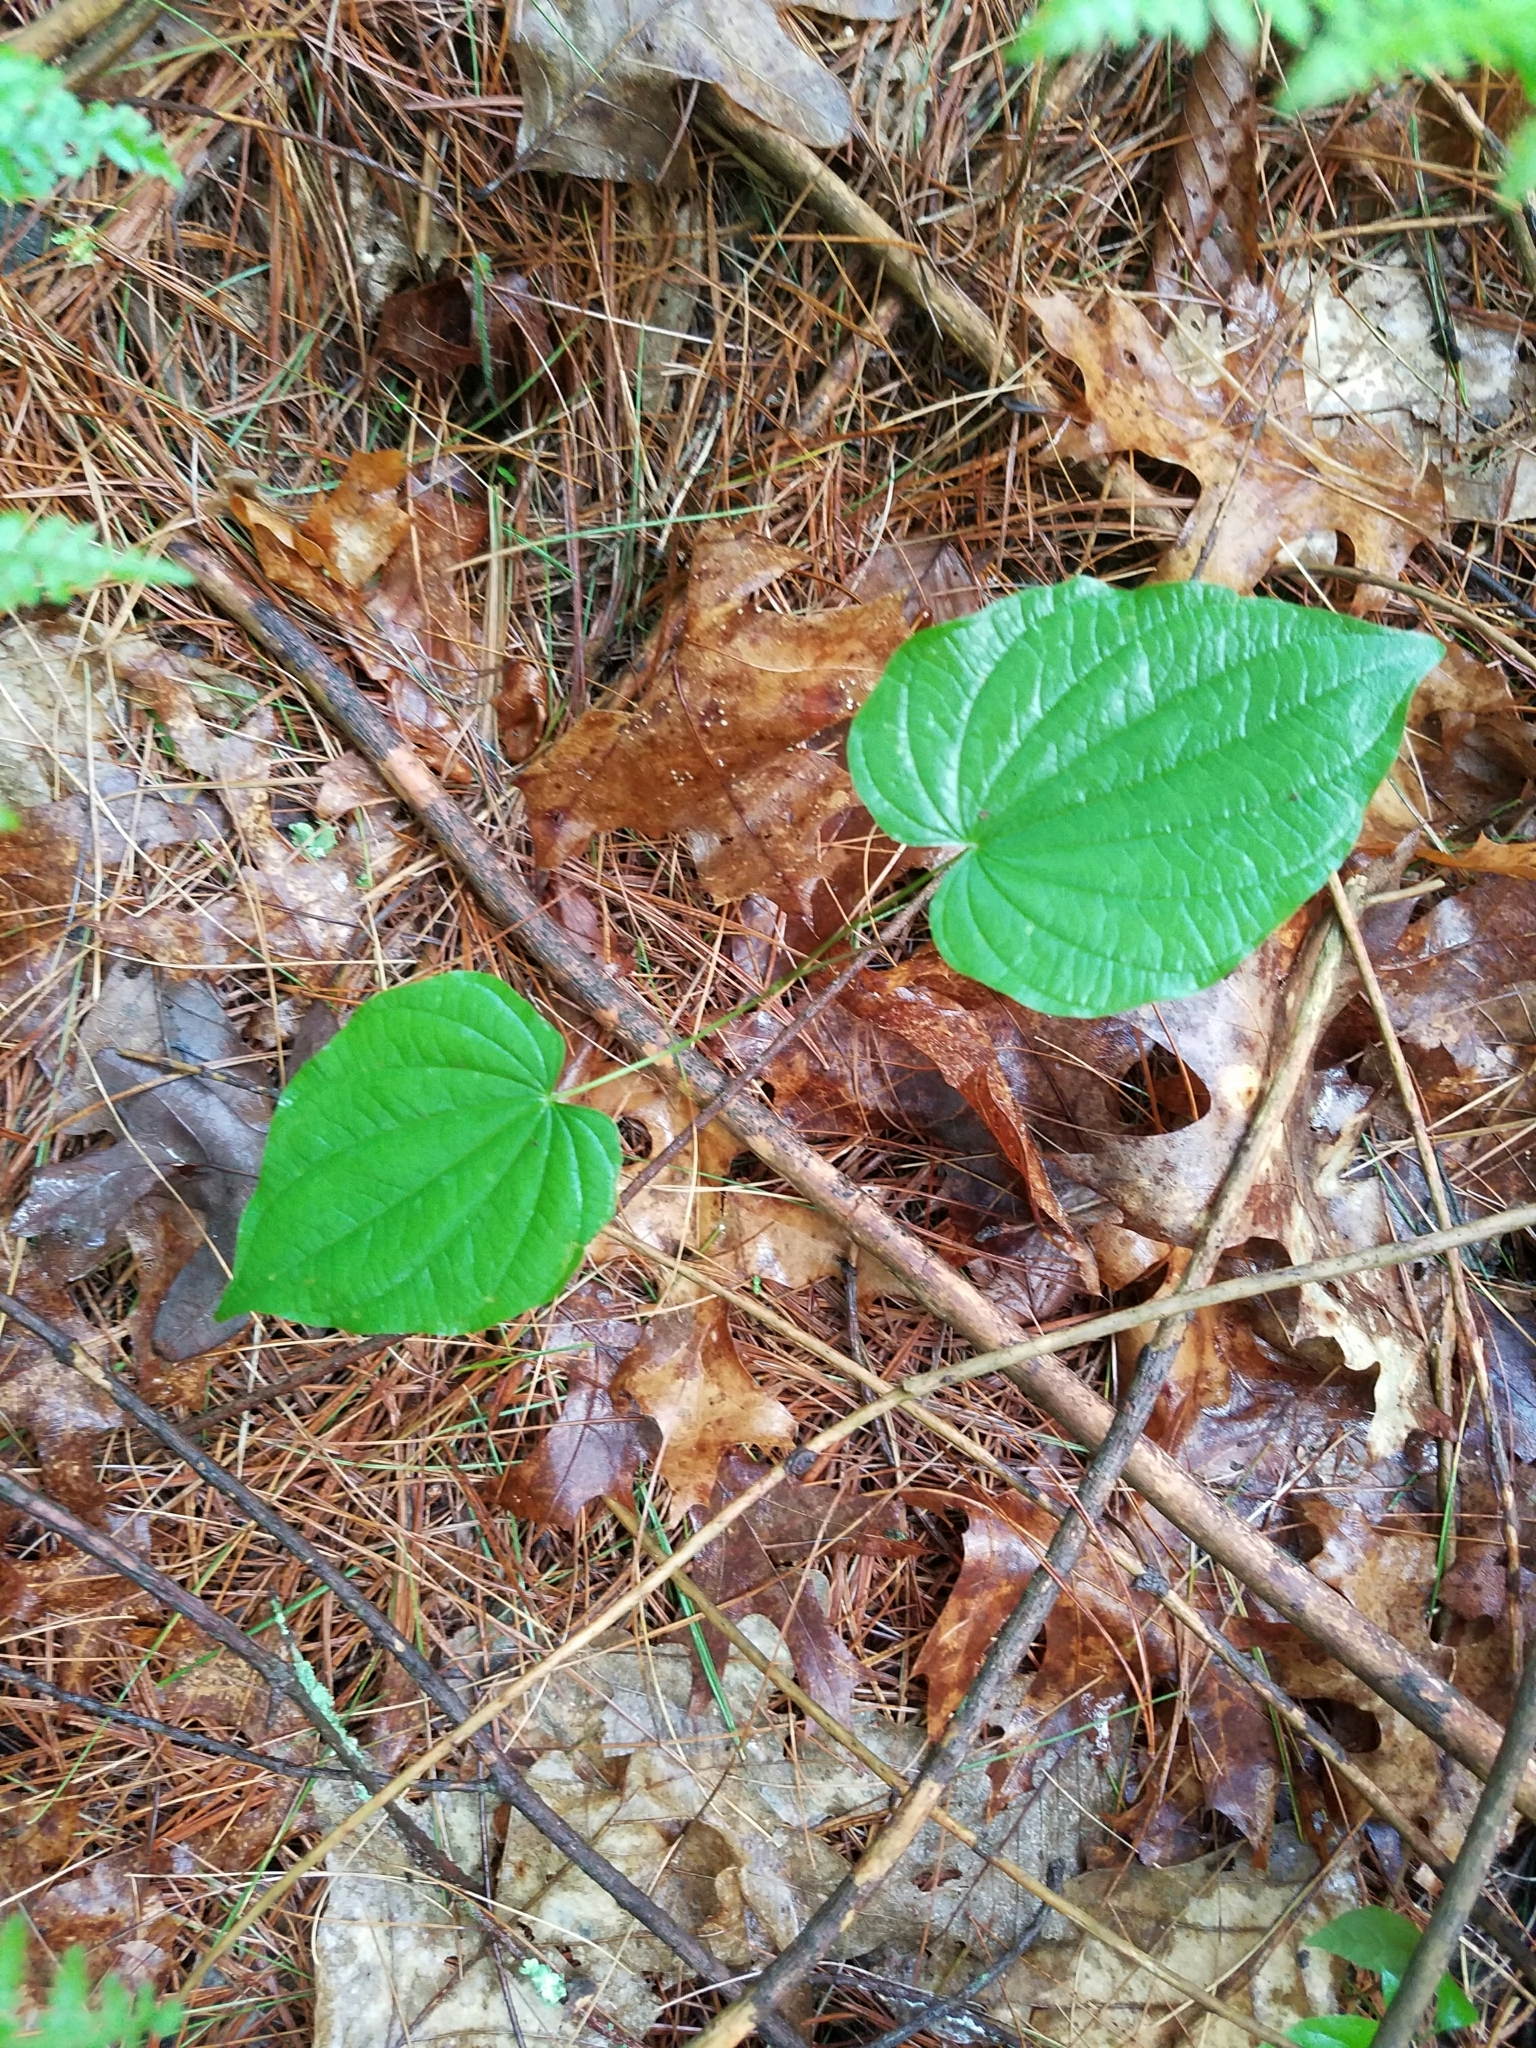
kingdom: Plantae
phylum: Tracheophyta
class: Liliopsida
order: Dioscoreales
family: Dioscoreaceae
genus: Dioscorea
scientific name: Dioscorea villosa
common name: Wild yam
